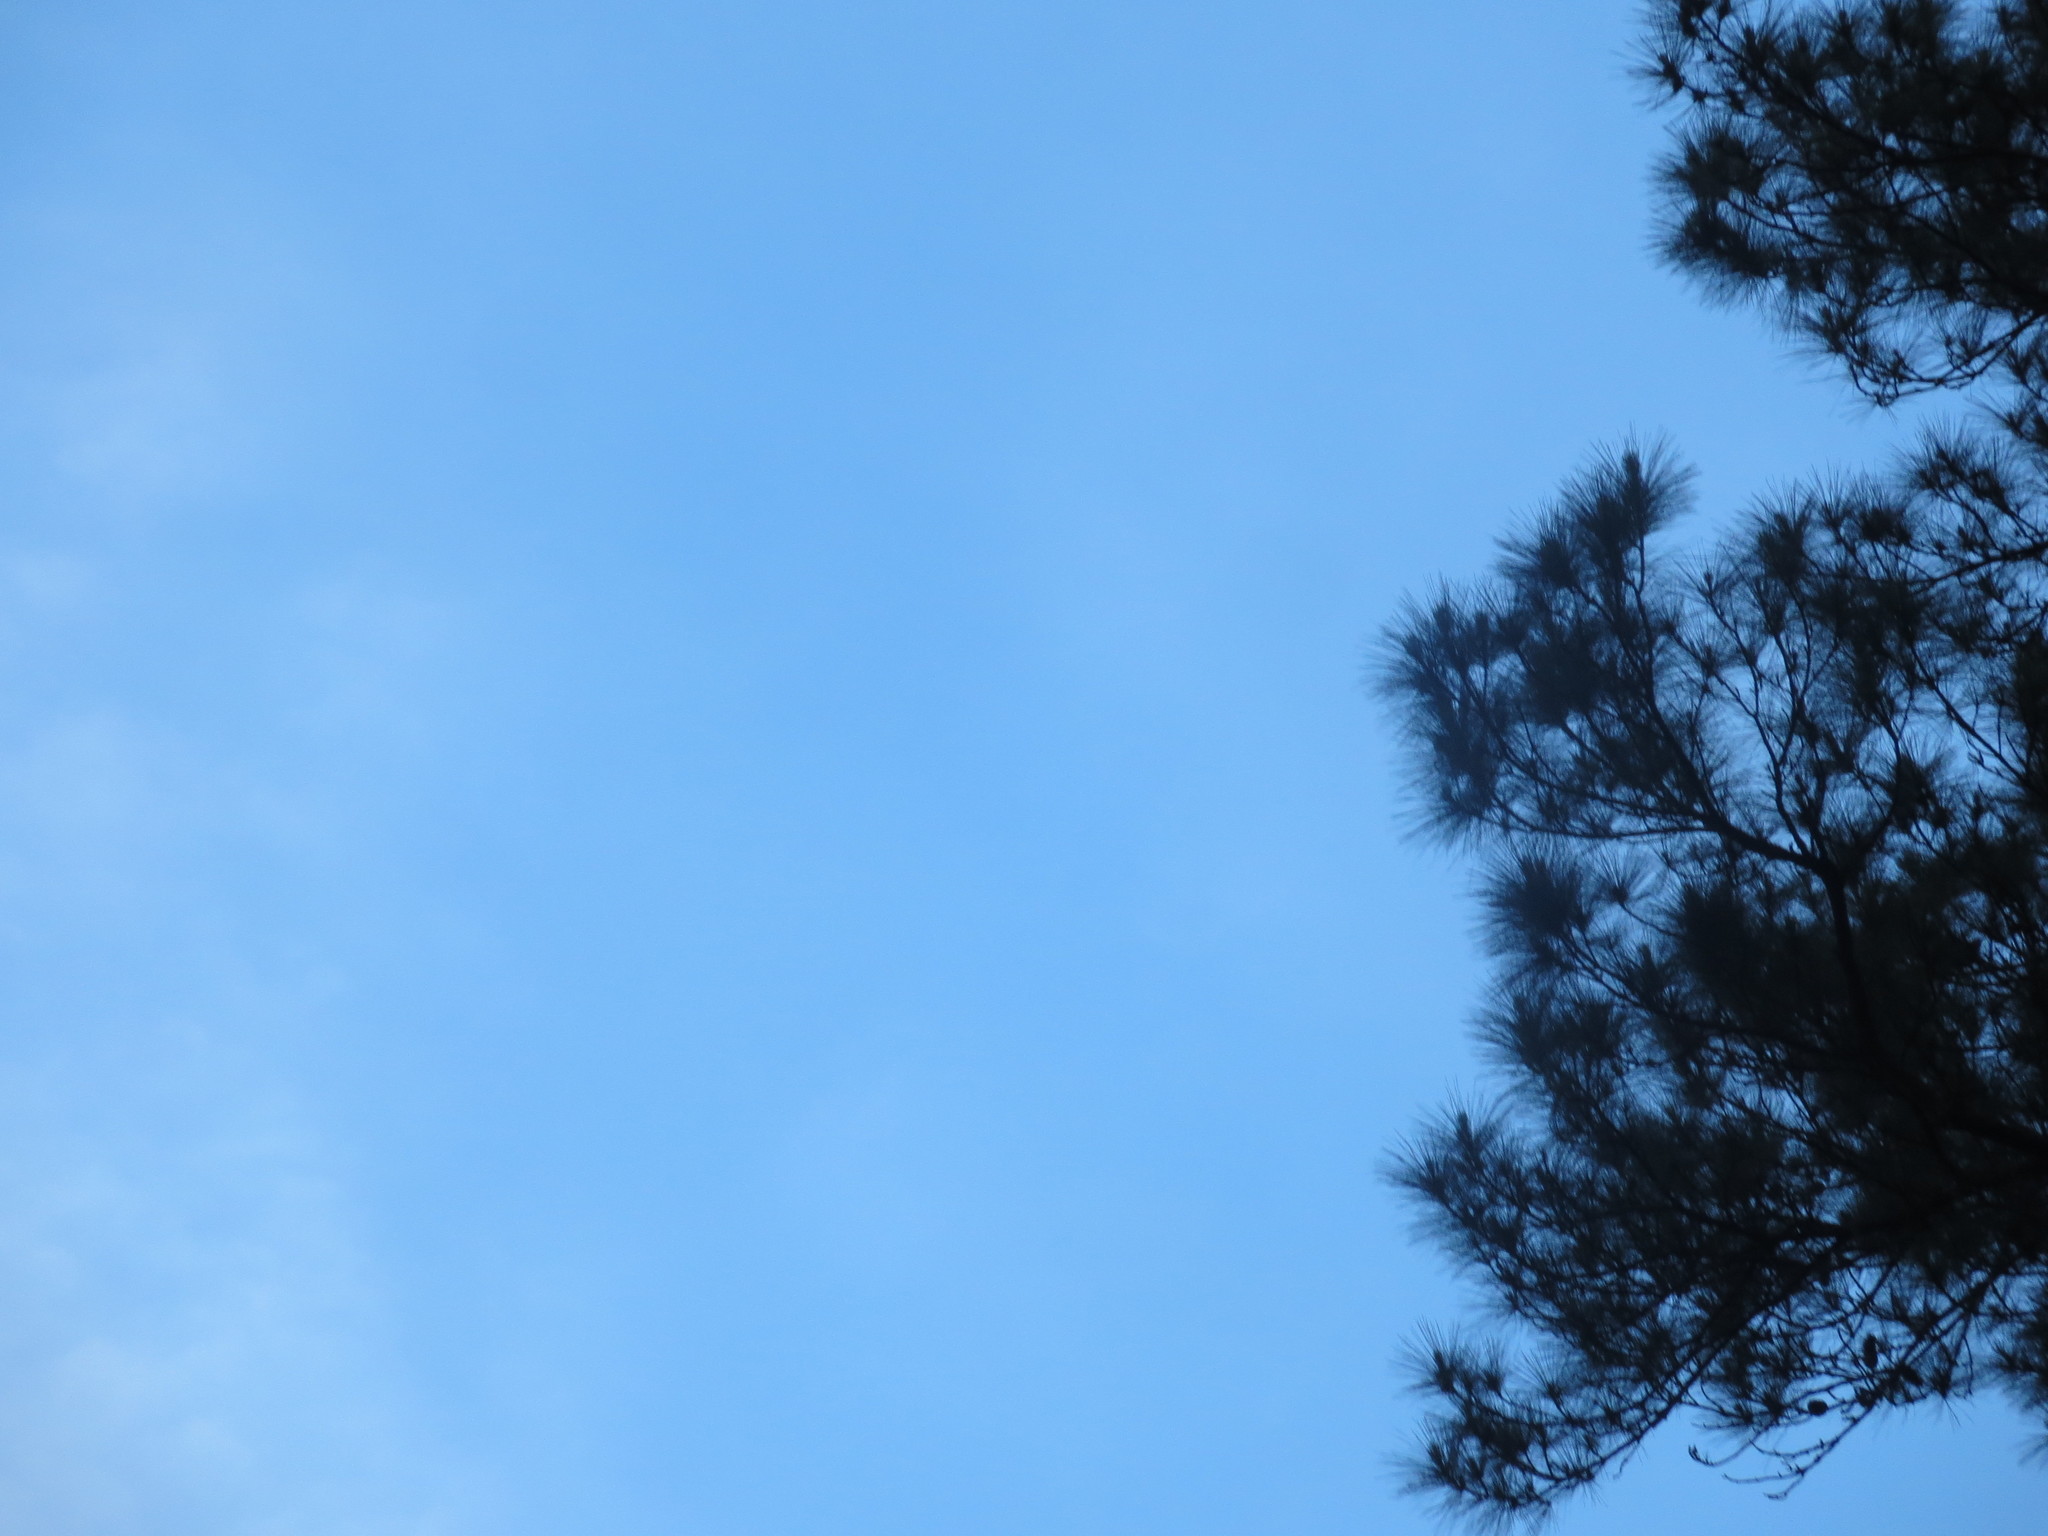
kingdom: Plantae
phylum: Tracheophyta
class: Pinopsida
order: Pinales
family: Pinaceae
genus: Pinus
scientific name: Pinus
